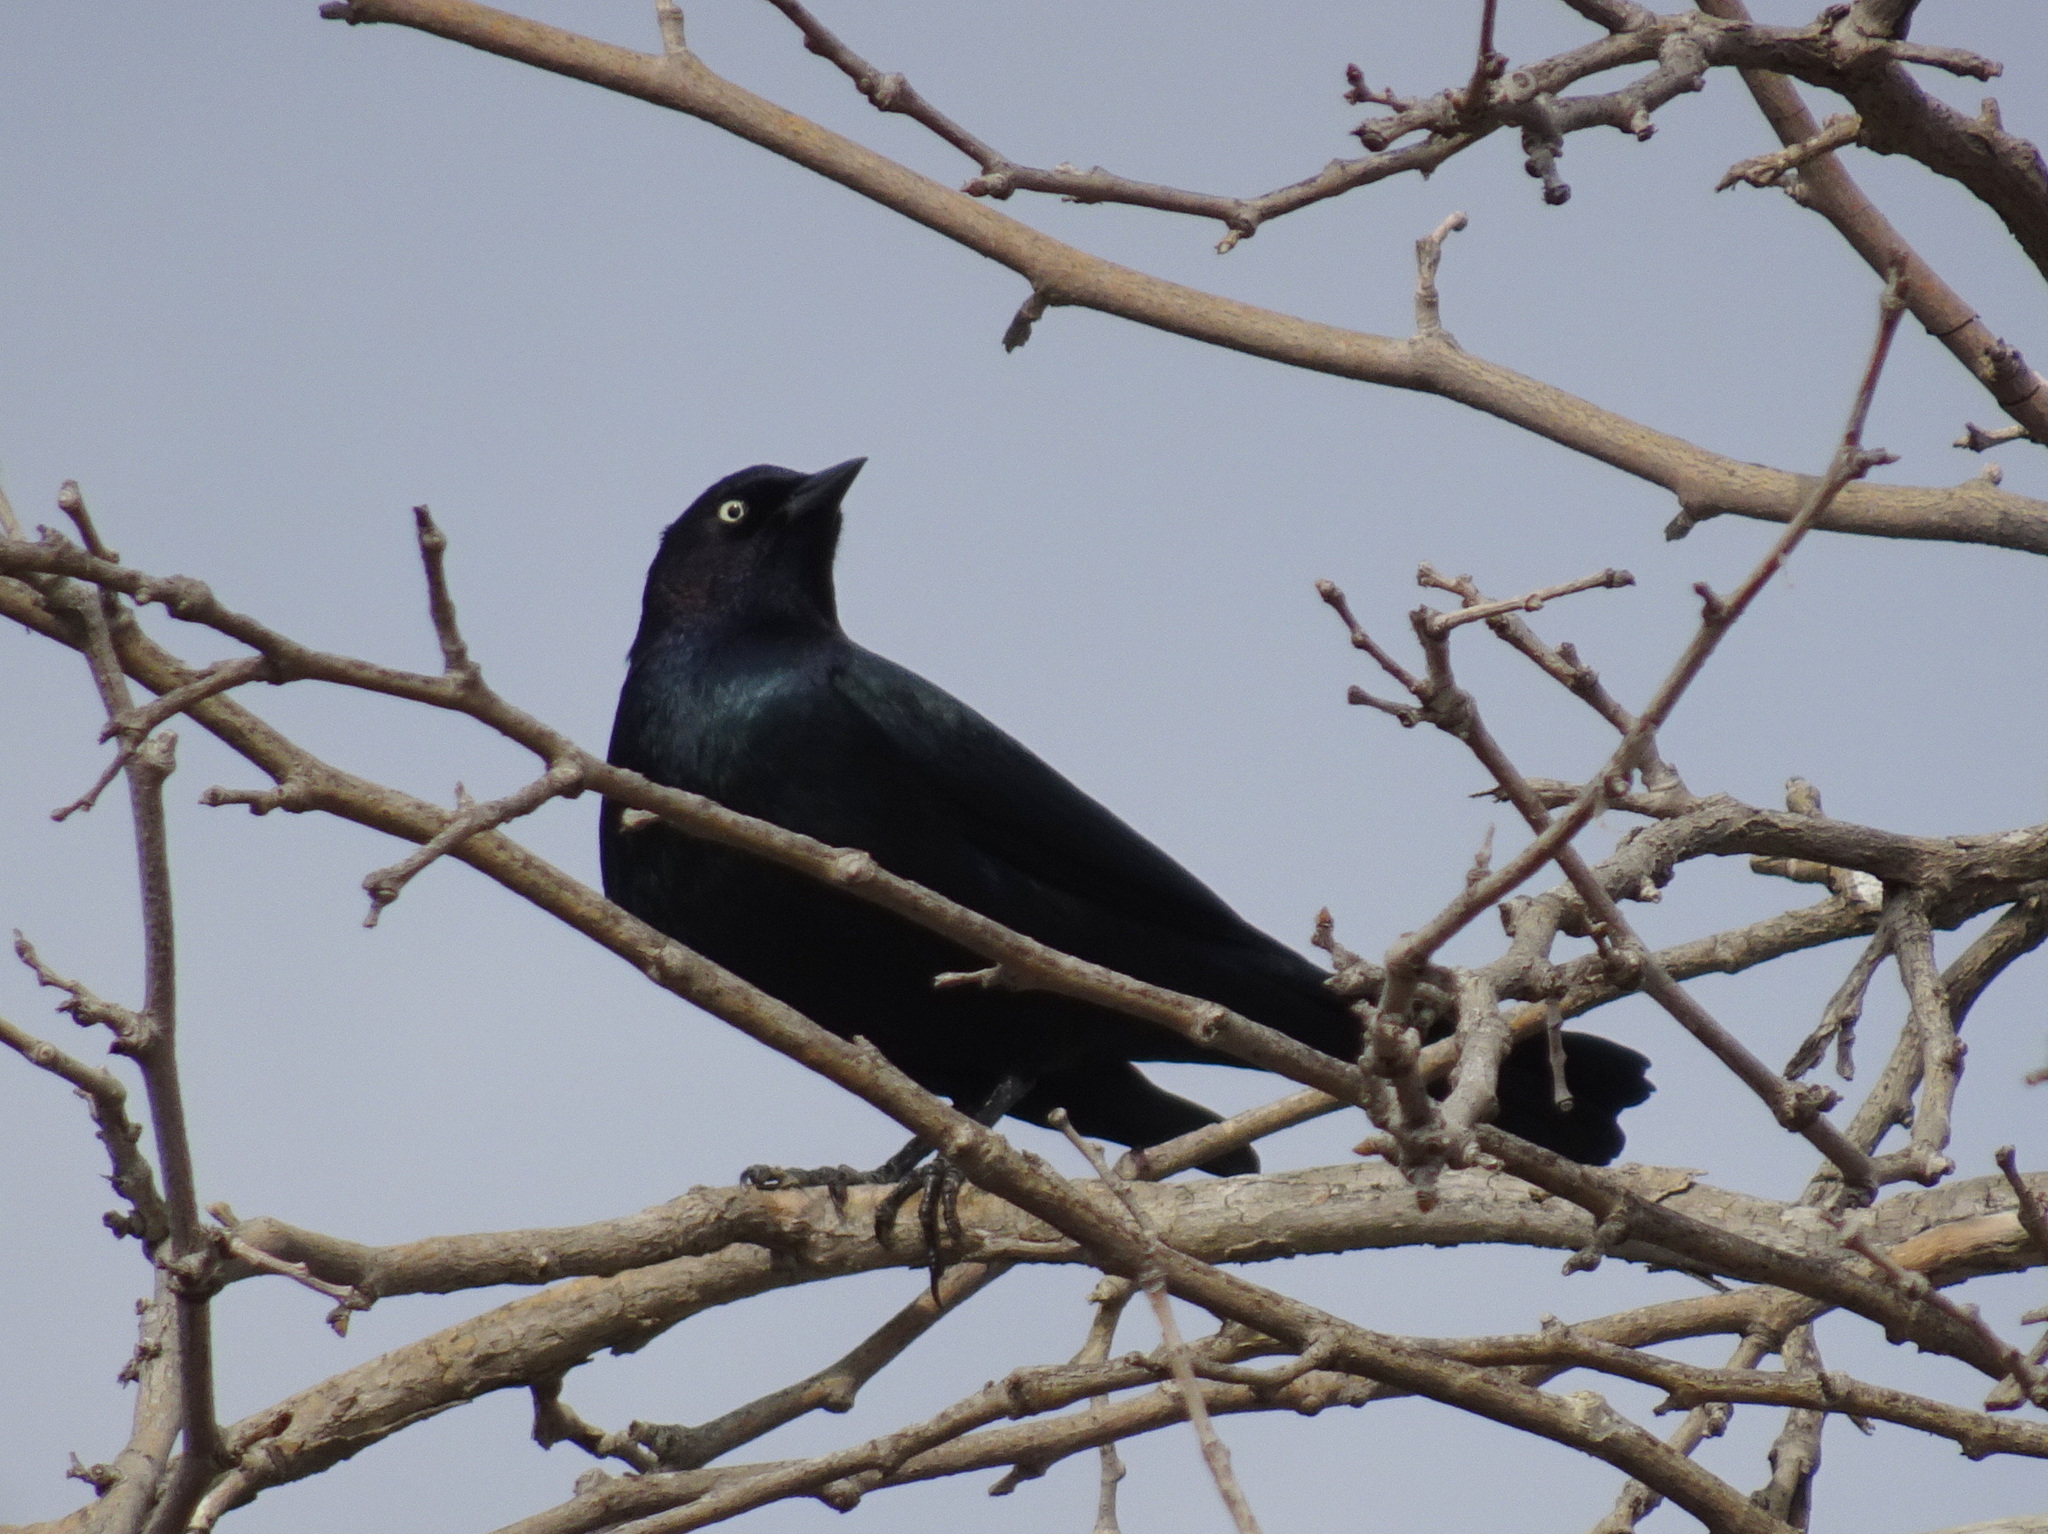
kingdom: Animalia
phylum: Chordata
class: Aves
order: Passeriformes
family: Icteridae
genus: Euphagus
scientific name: Euphagus cyanocephalus
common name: Brewer's blackbird
